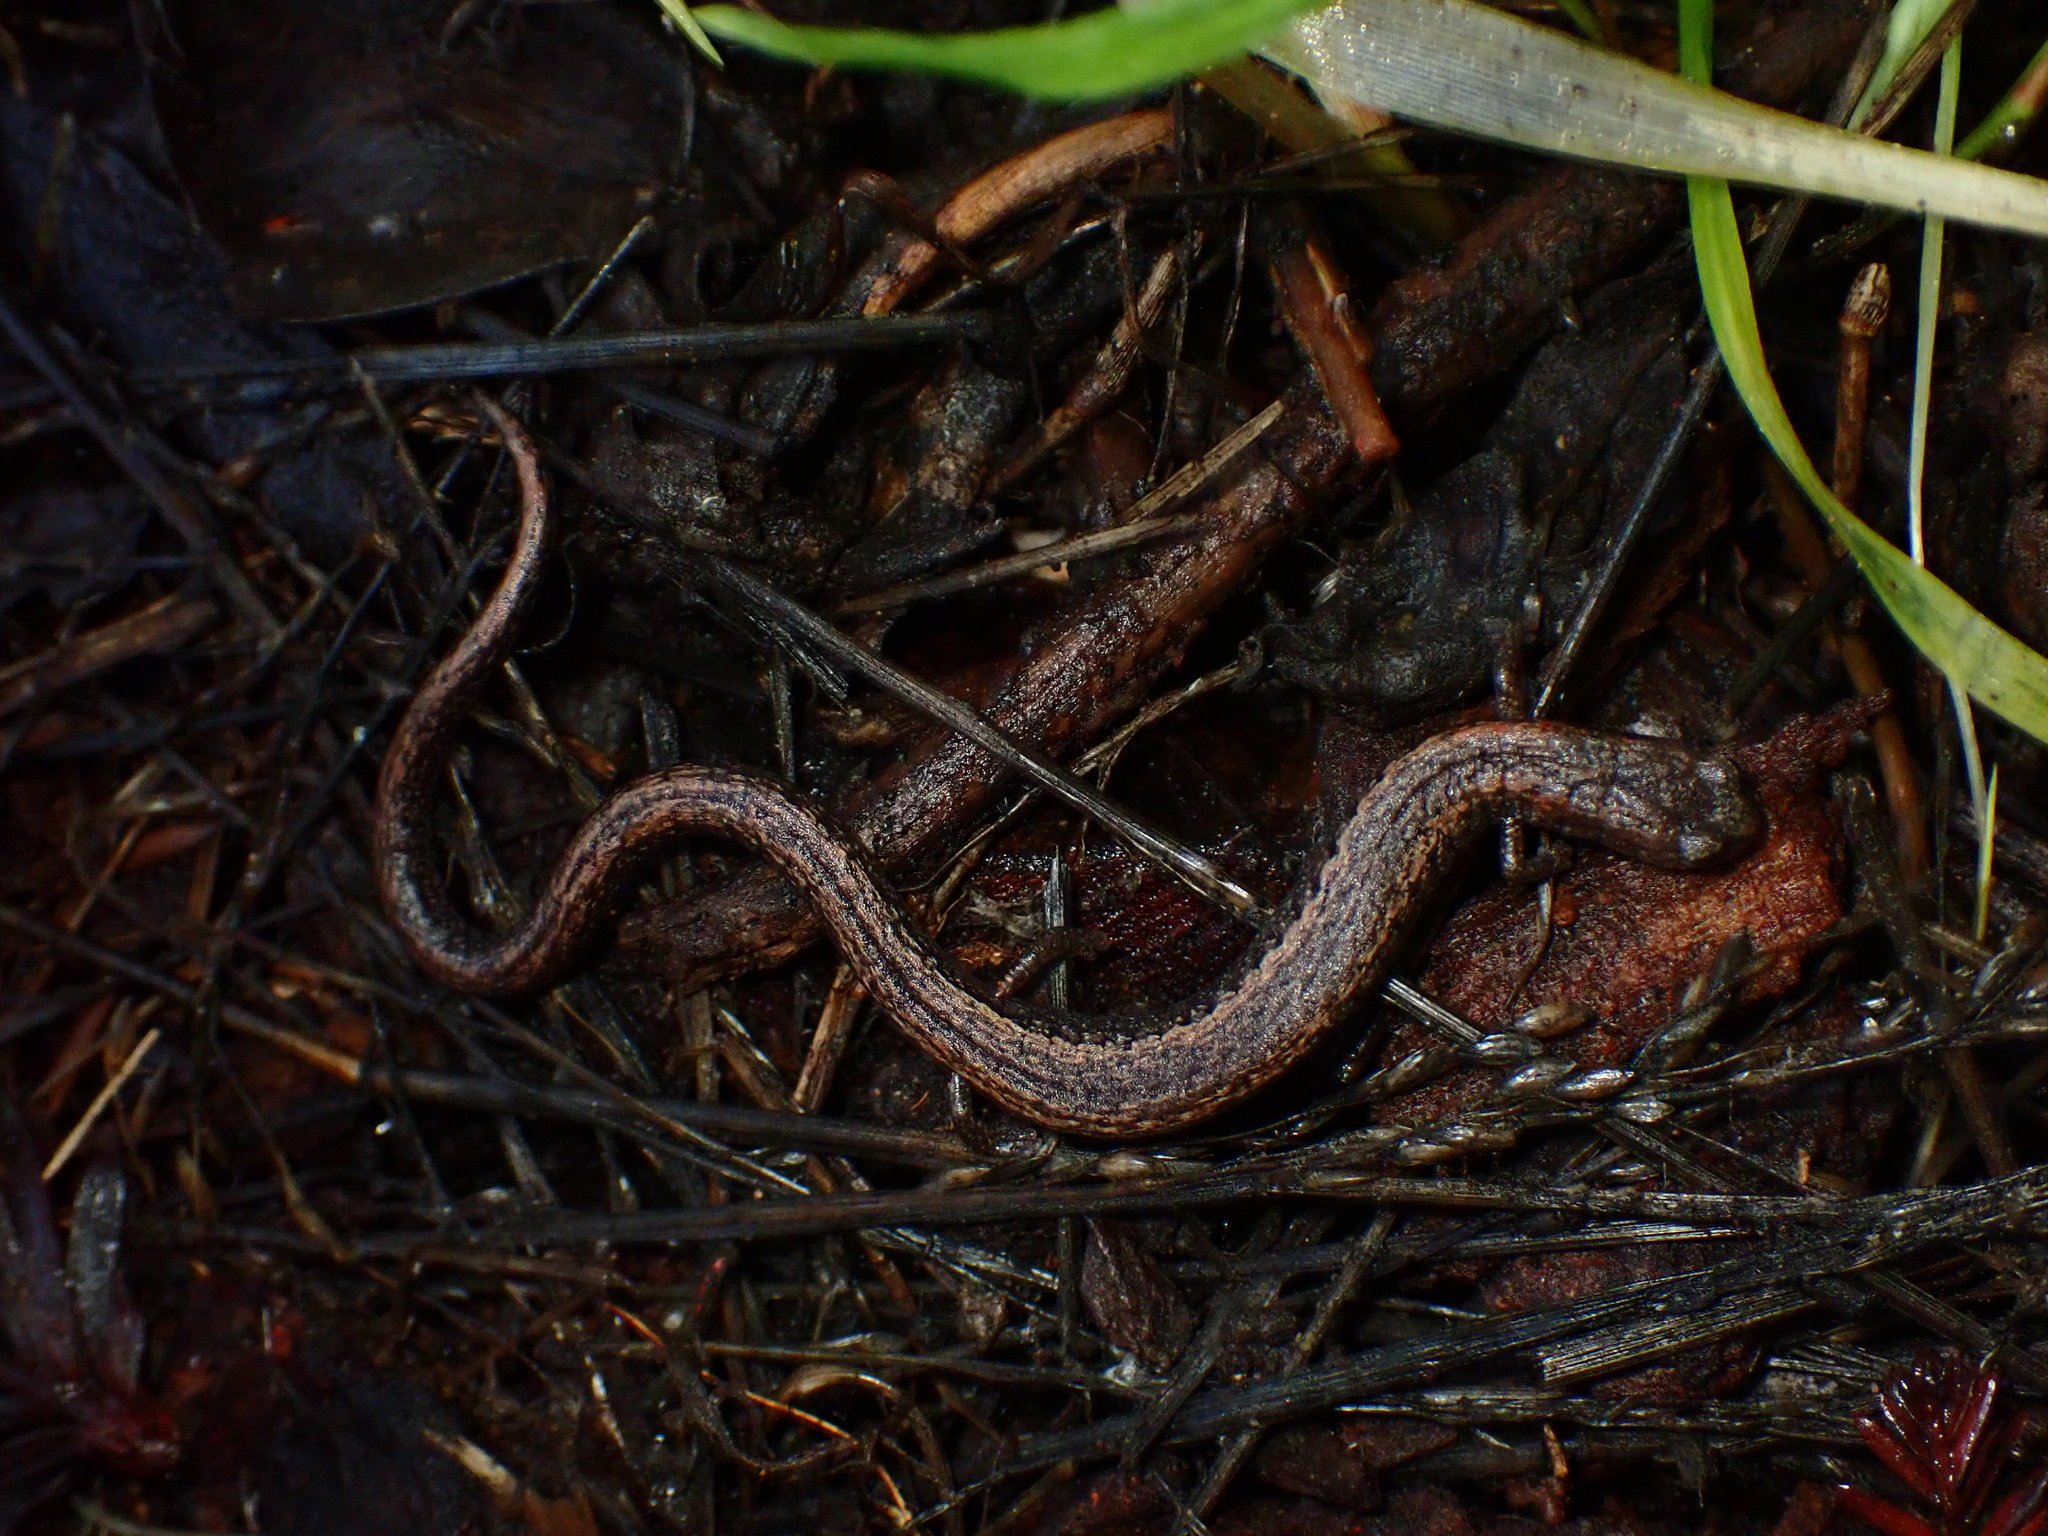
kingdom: Animalia
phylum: Chordata
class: Amphibia
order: Caudata
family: Plethodontidae
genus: Batrachoseps
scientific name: Batrachoseps attenuatus
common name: California slender salamander
